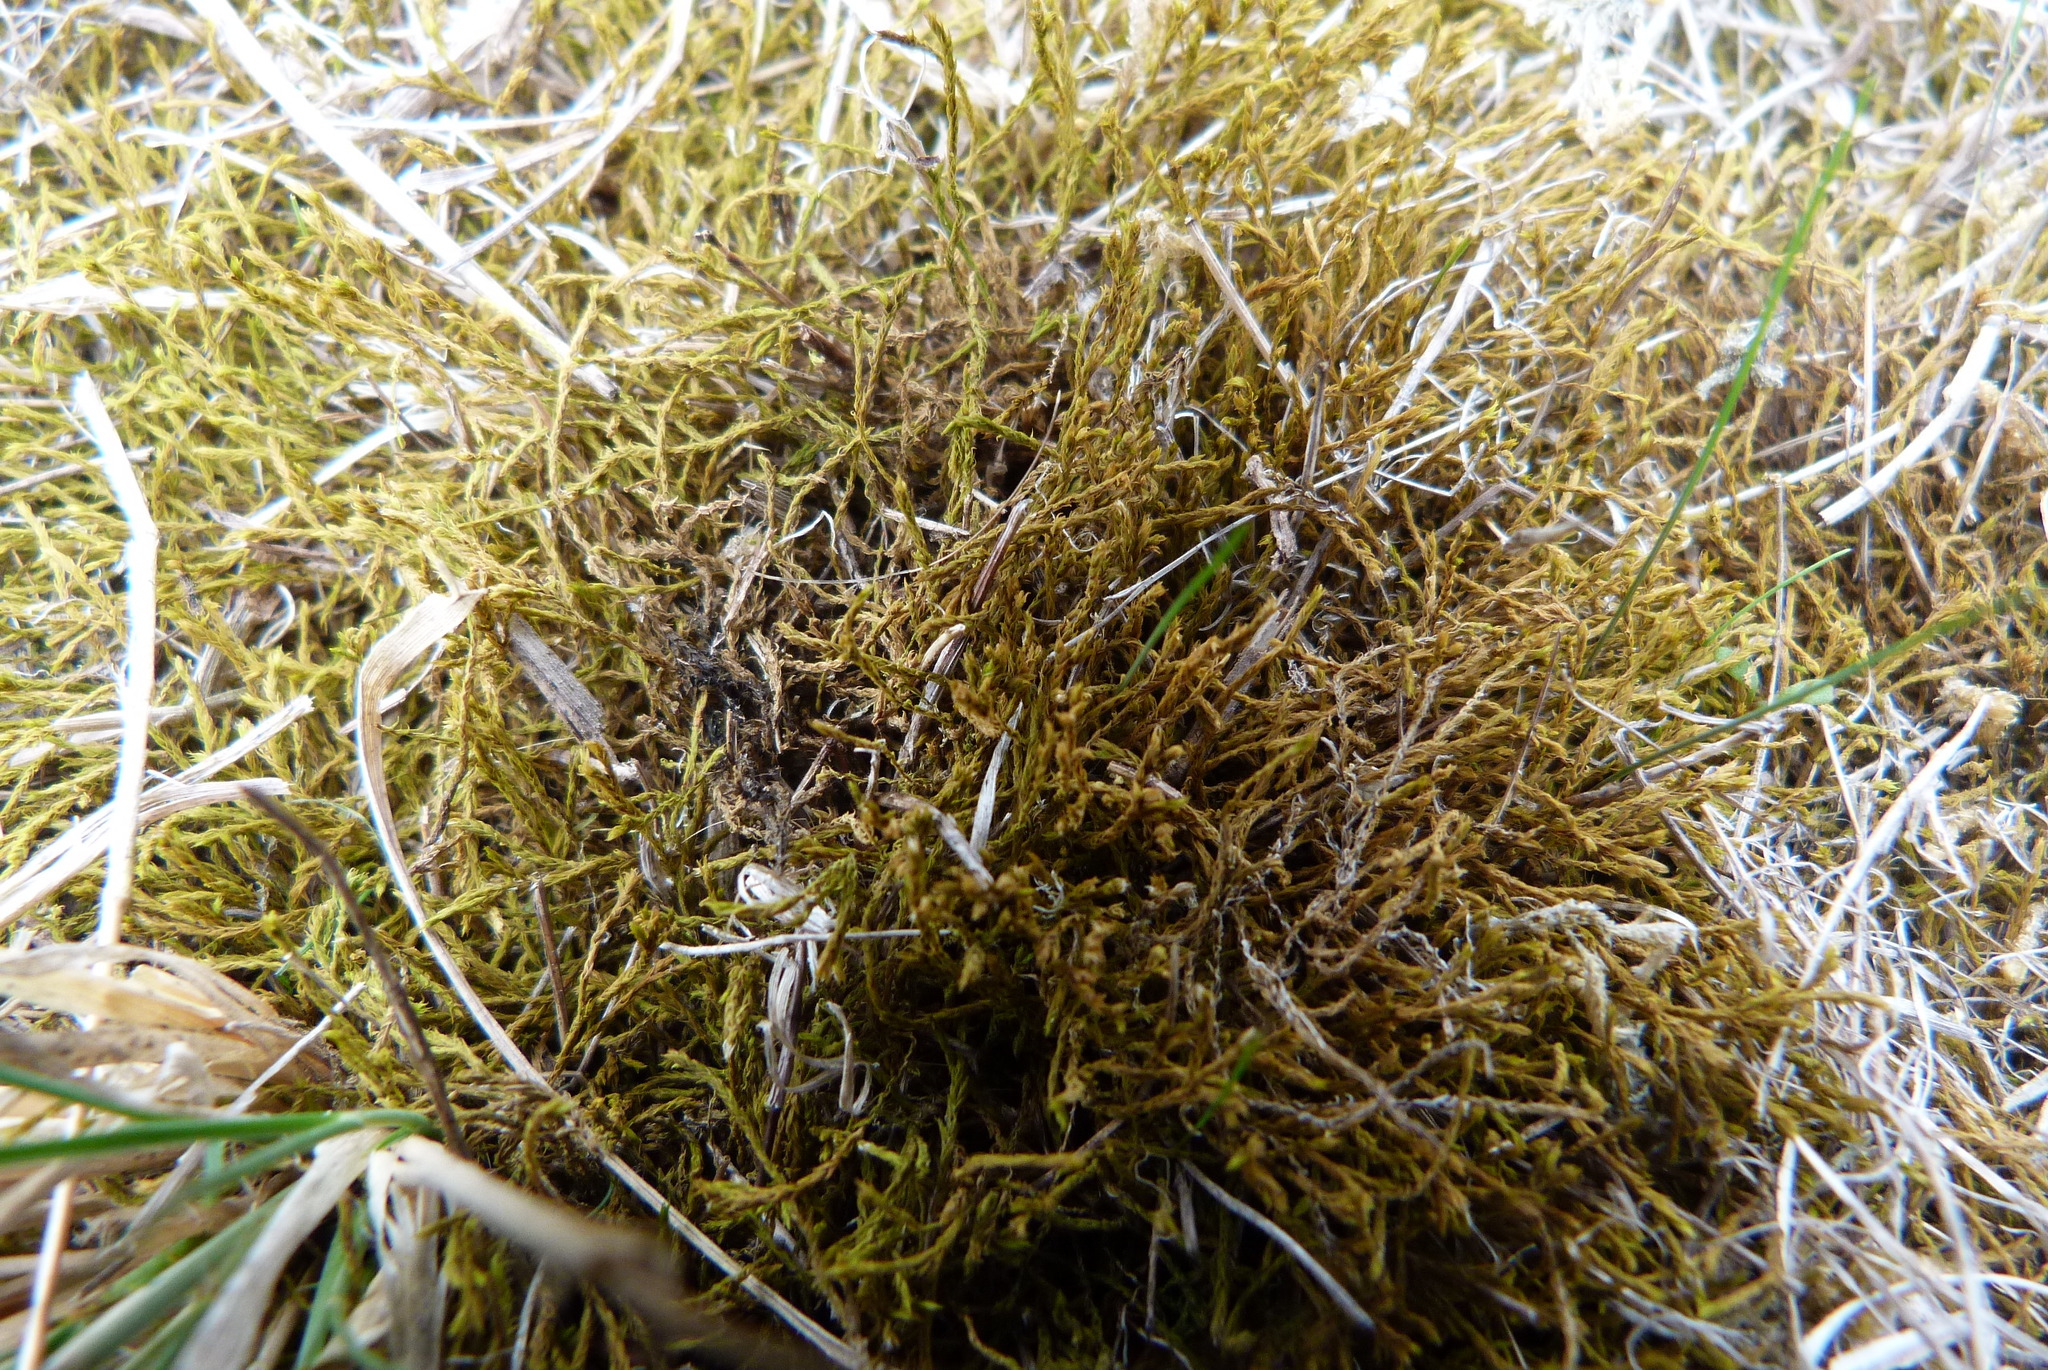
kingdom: Plantae
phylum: Bryophyta
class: Bryopsida
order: Pottiales
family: Pottiaceae
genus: Triquetrella
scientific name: Triquetrella papillata
